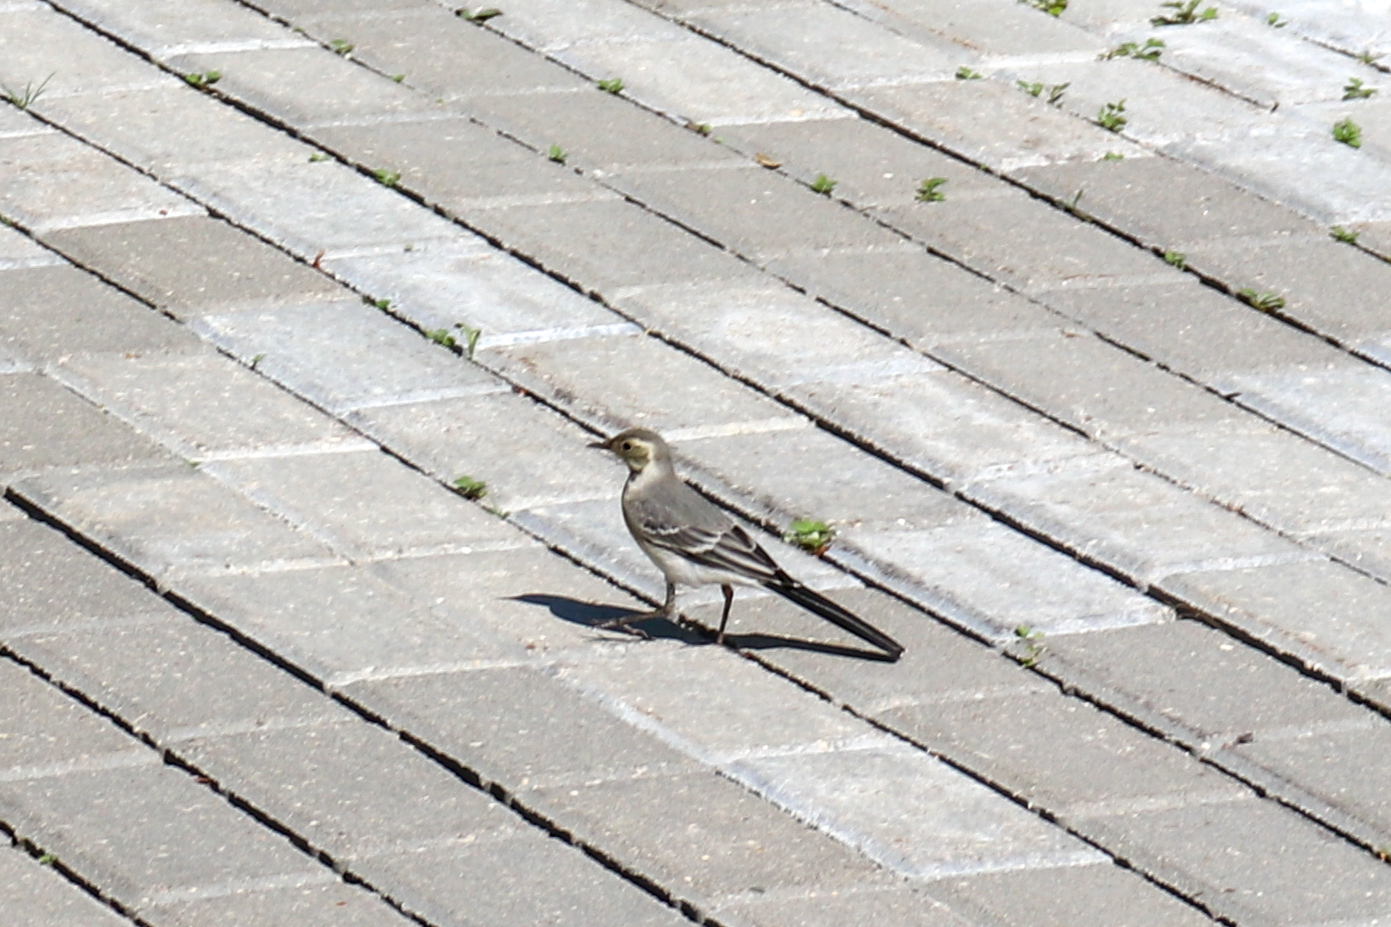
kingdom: Animalia
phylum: Chordata
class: Aves
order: Passeriformes
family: Motacillidae
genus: Motacilla
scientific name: Motacilla alba
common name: White wagtail
